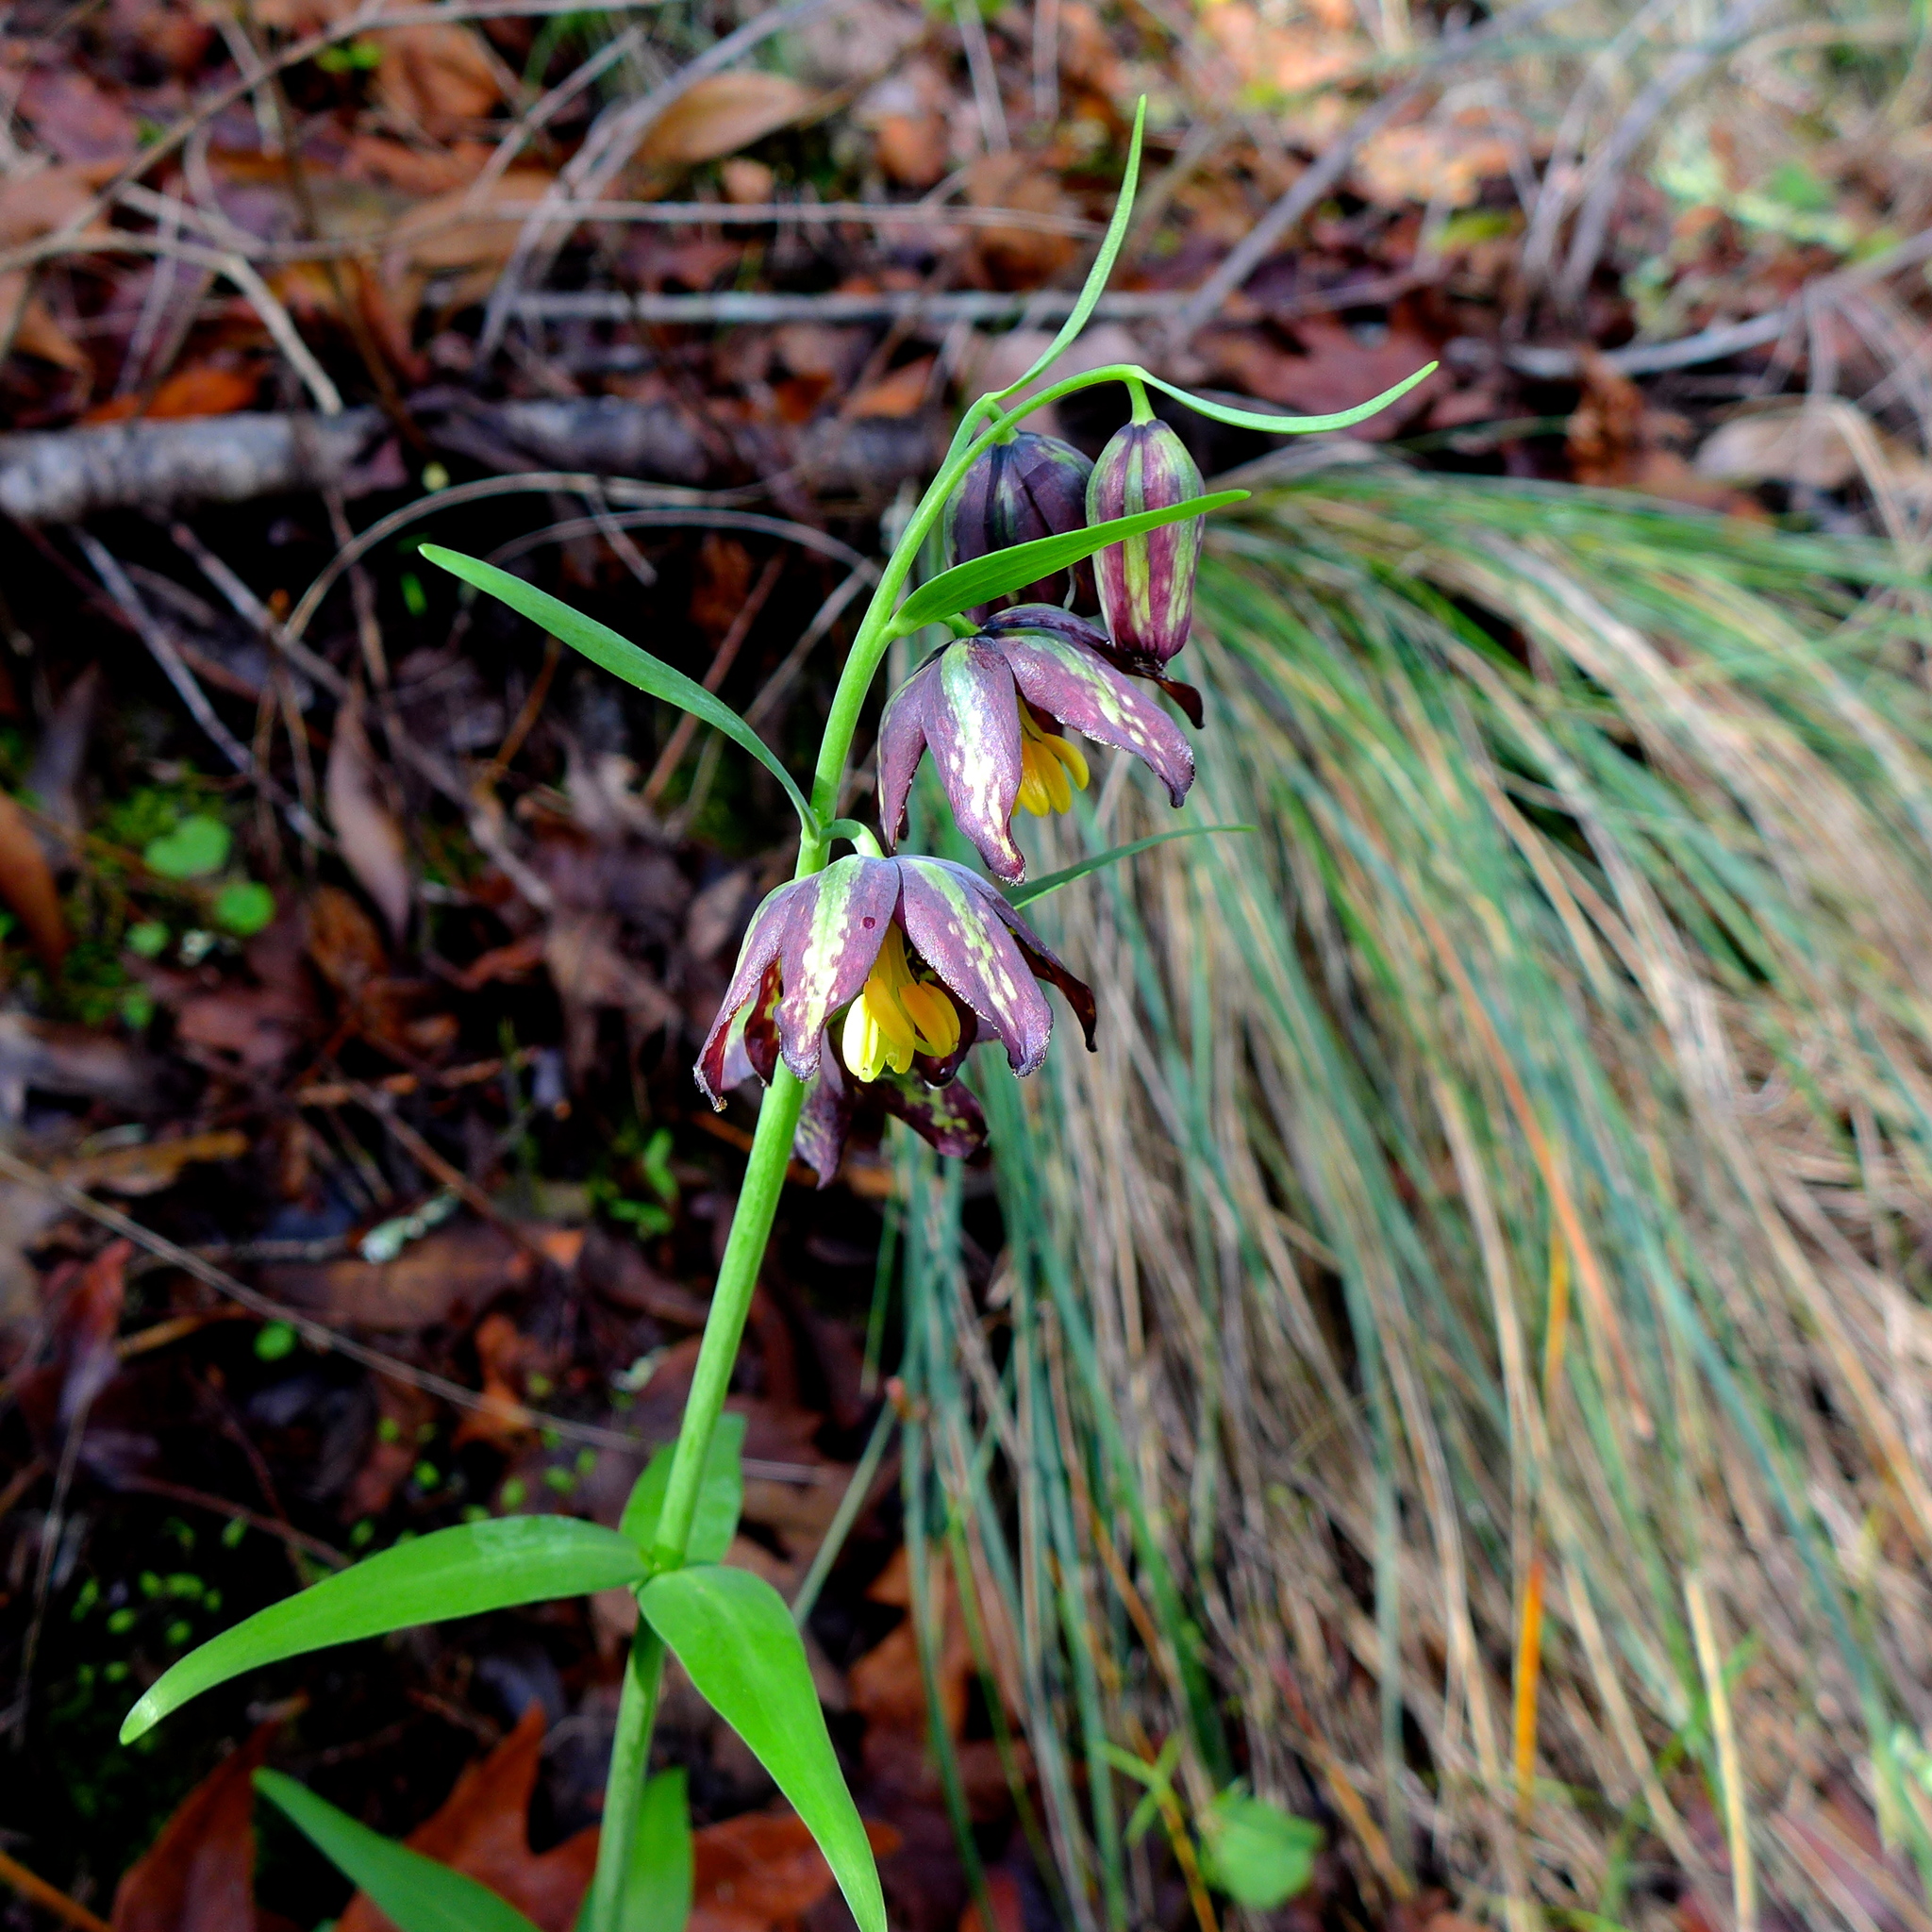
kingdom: Plantae
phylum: Tracheophyta
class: Liliopsida
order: Liliales
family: Liliaceae
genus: Fritillaria
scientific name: Fritillaria affinis
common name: Ojai fritillary
